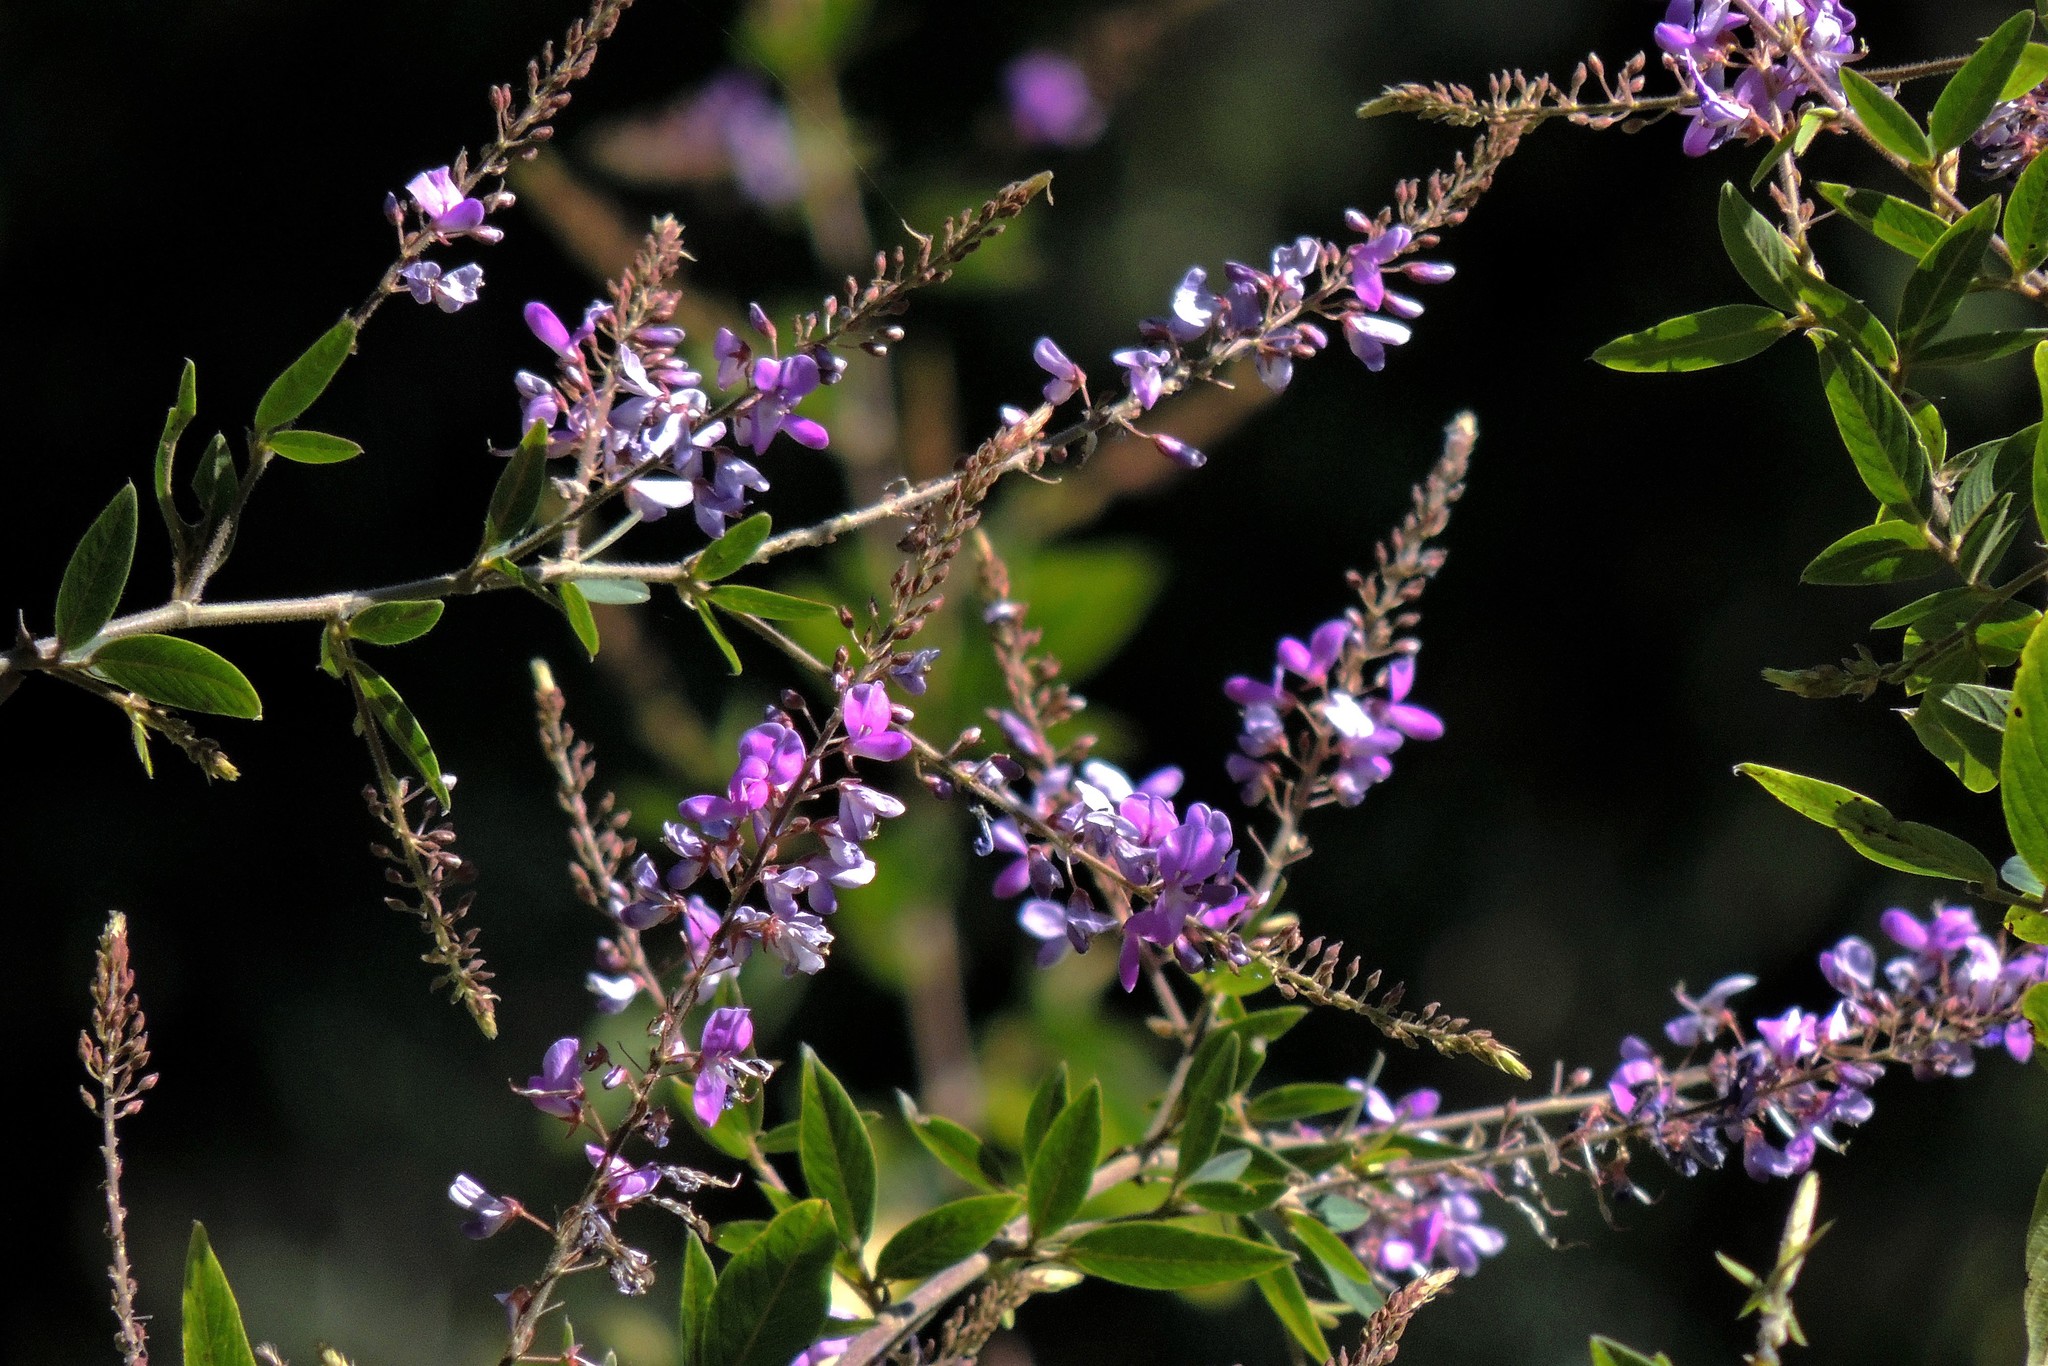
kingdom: Plantae
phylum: Tracheophyta
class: Magnoliopsida
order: Fabales
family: Fabaceae
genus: Desmodium
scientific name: Desmodium cuneatum
